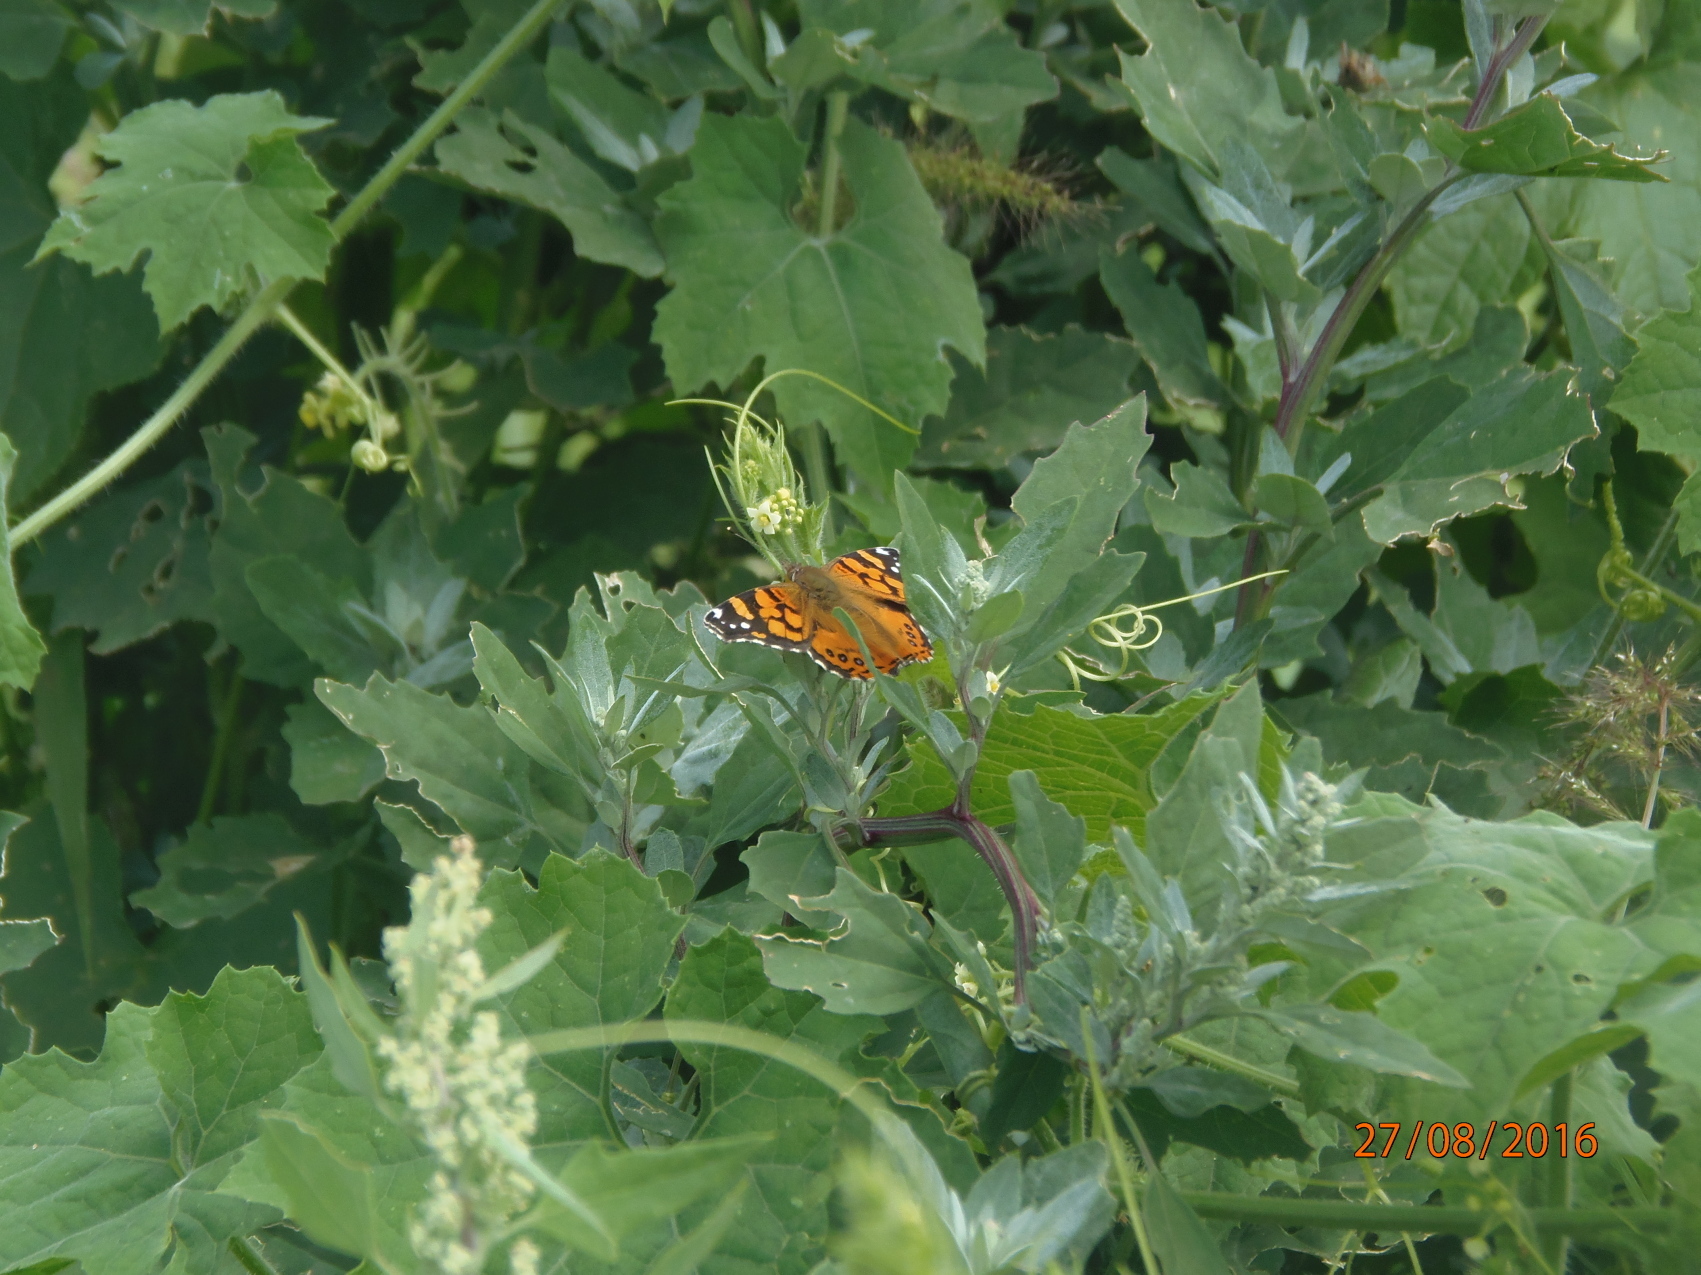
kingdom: Animalia
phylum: Arthropoda
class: Insecta
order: Lepidoptera
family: Nymphalidae
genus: Vanessa
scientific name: Vanessa annabella
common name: West coast lady
